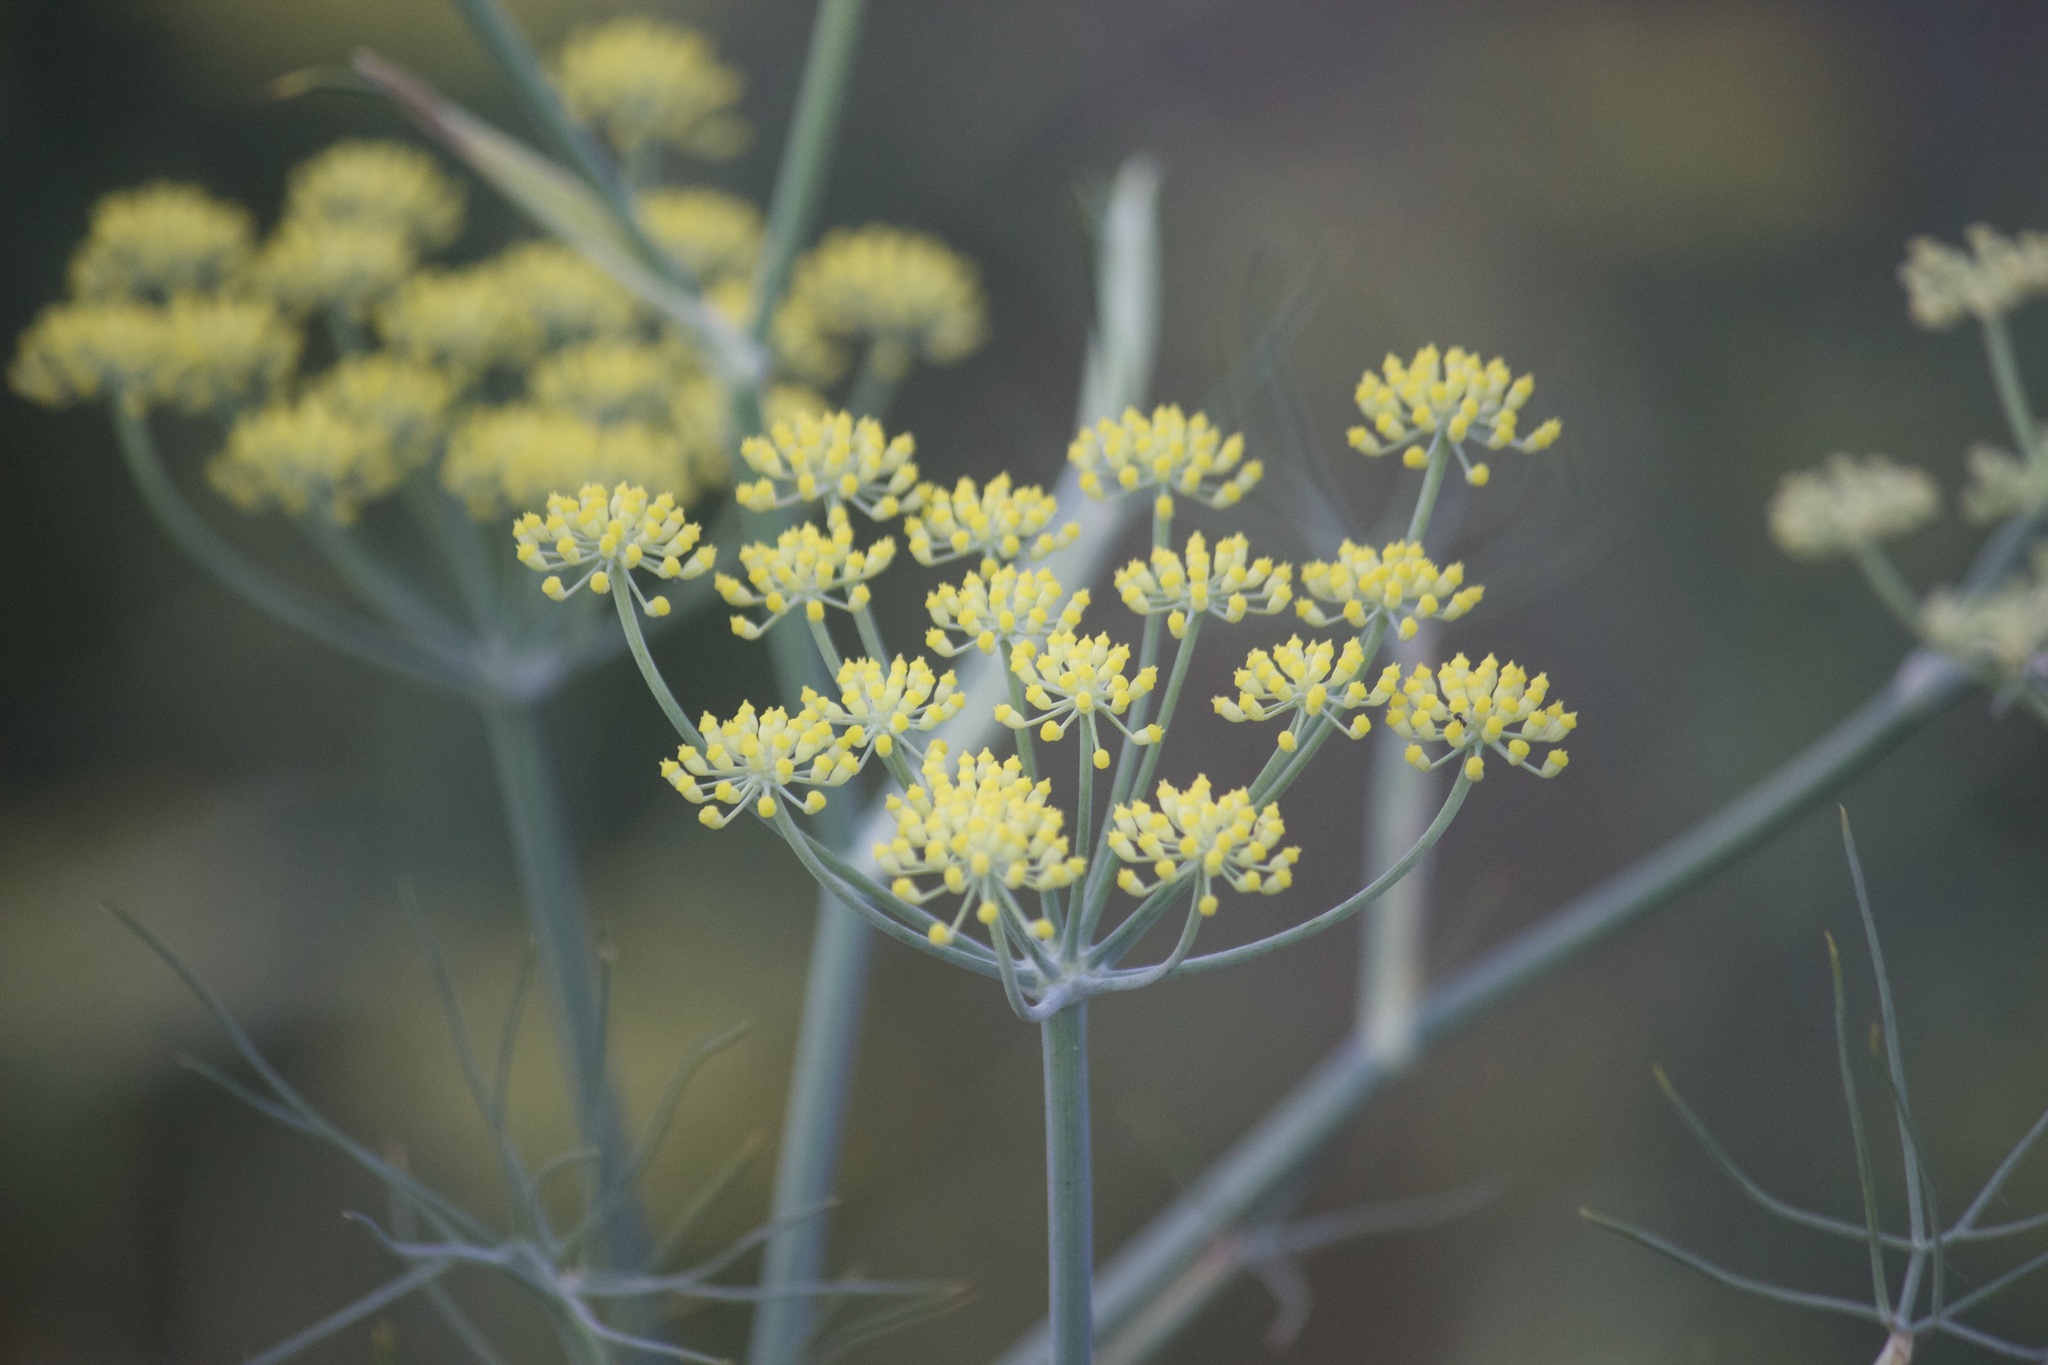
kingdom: Plantae
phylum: Tracheophyta
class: Magnoliopsida
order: Apiales
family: Apiaceae
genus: Foeniculum
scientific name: Foeniculum vulgare
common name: Fennel
